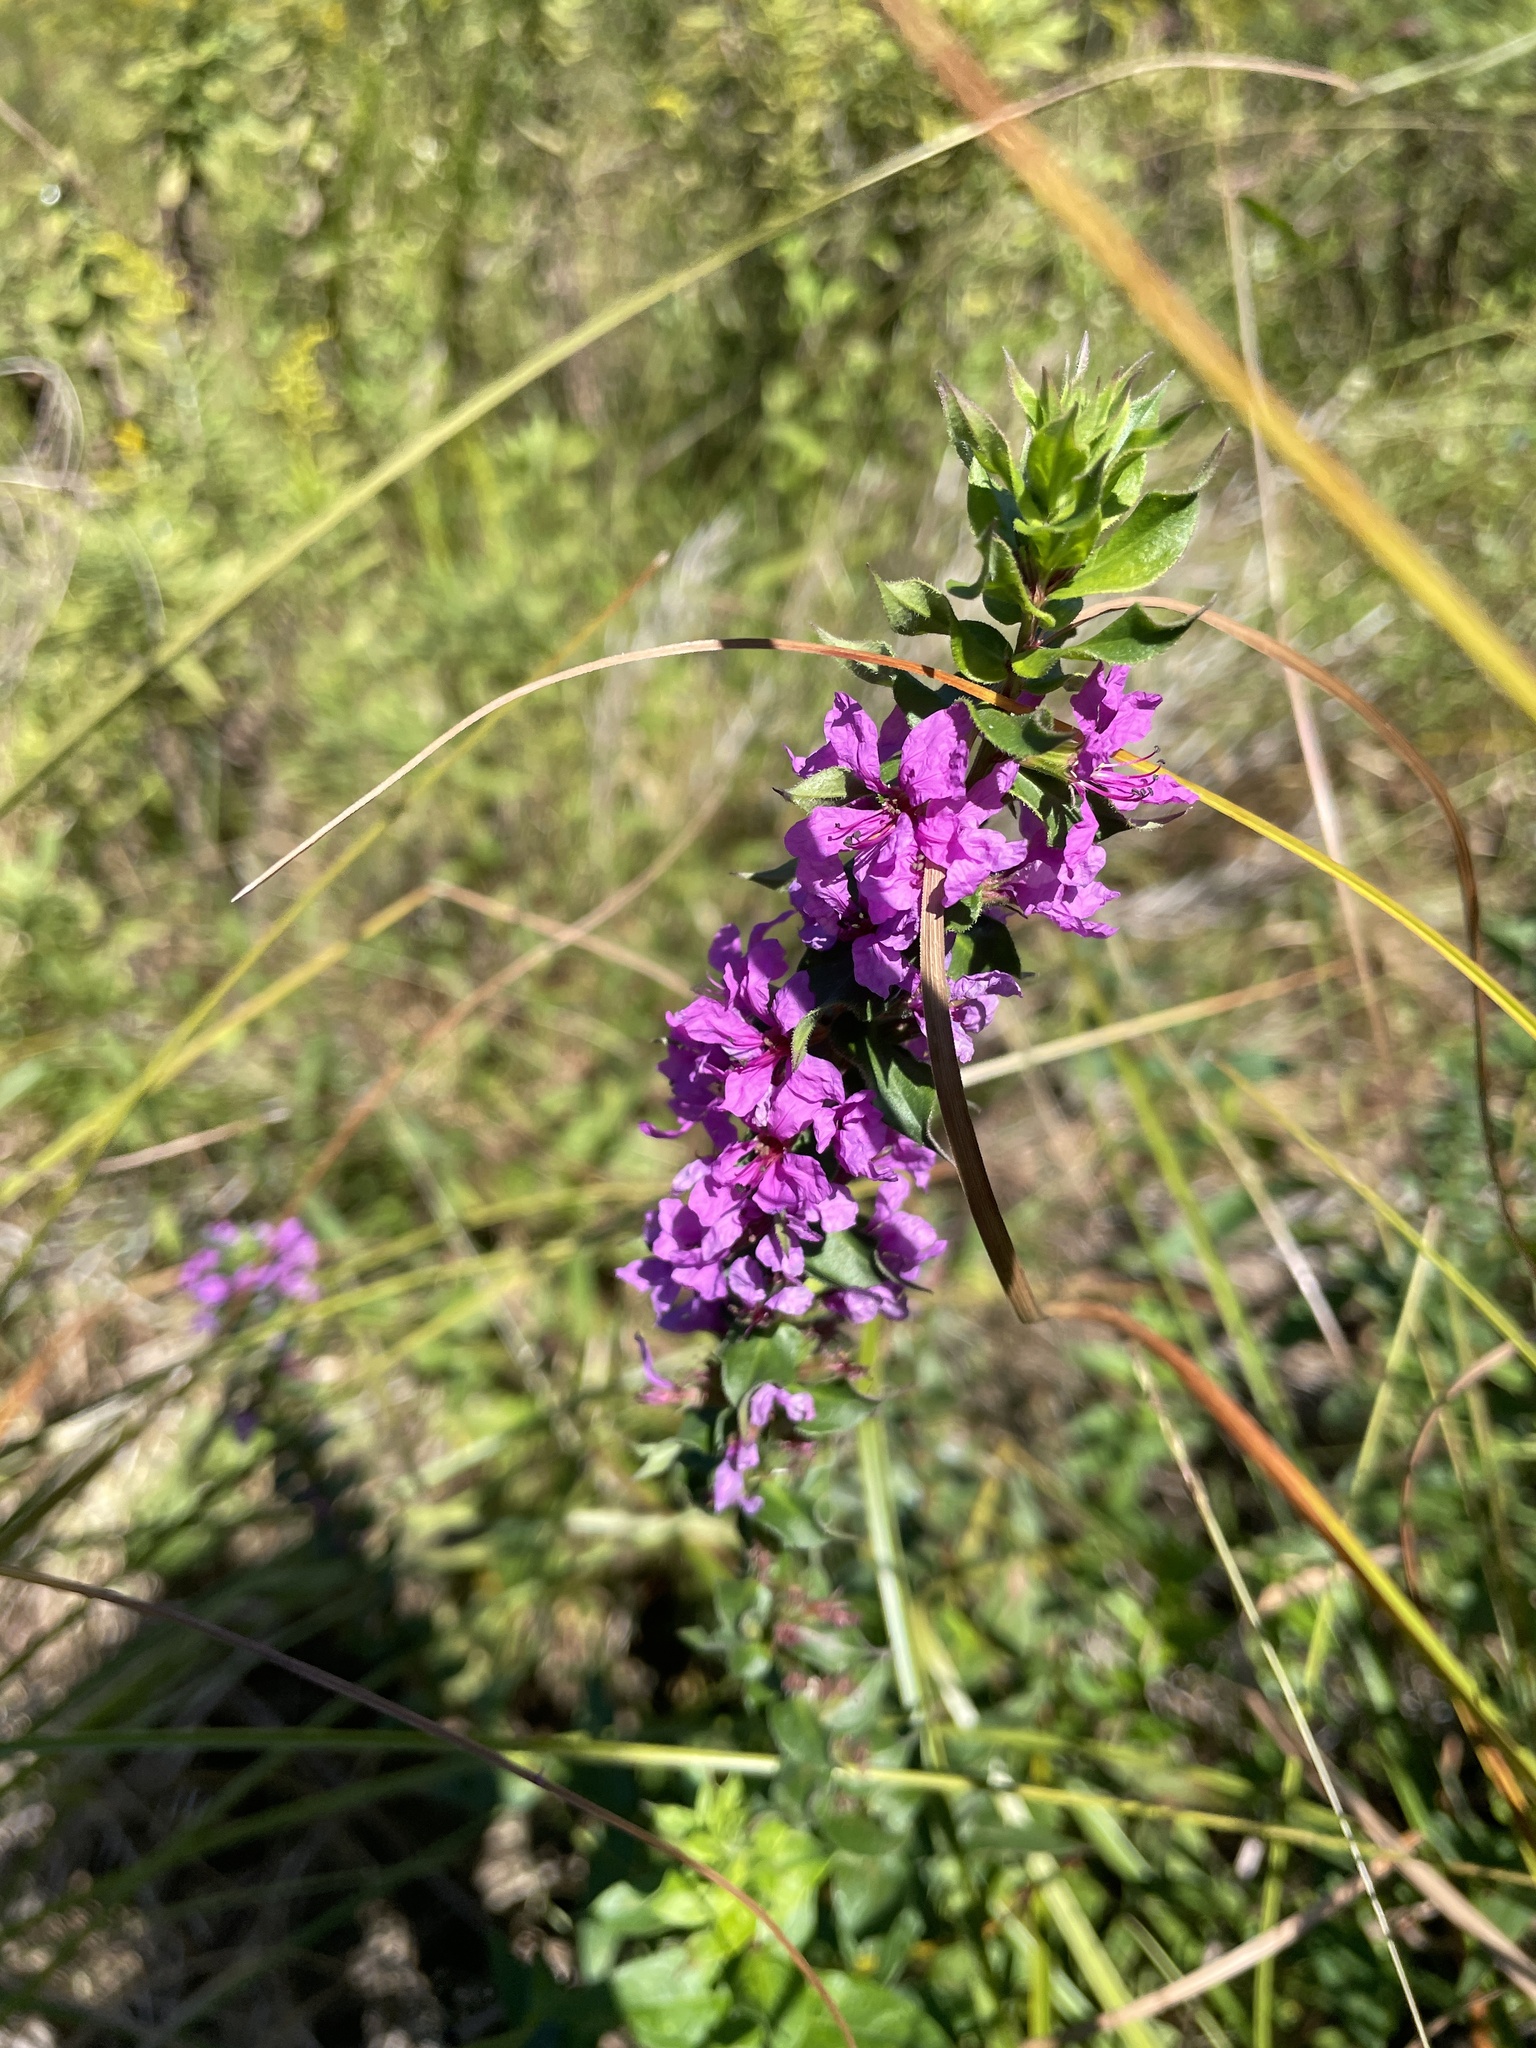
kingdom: Plantae
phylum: Tracheophyta
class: Magnoliopsida
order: Myrtales
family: Lythraceae
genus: Lythrum
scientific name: Lythrum salicaria
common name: Purple loosestrife
